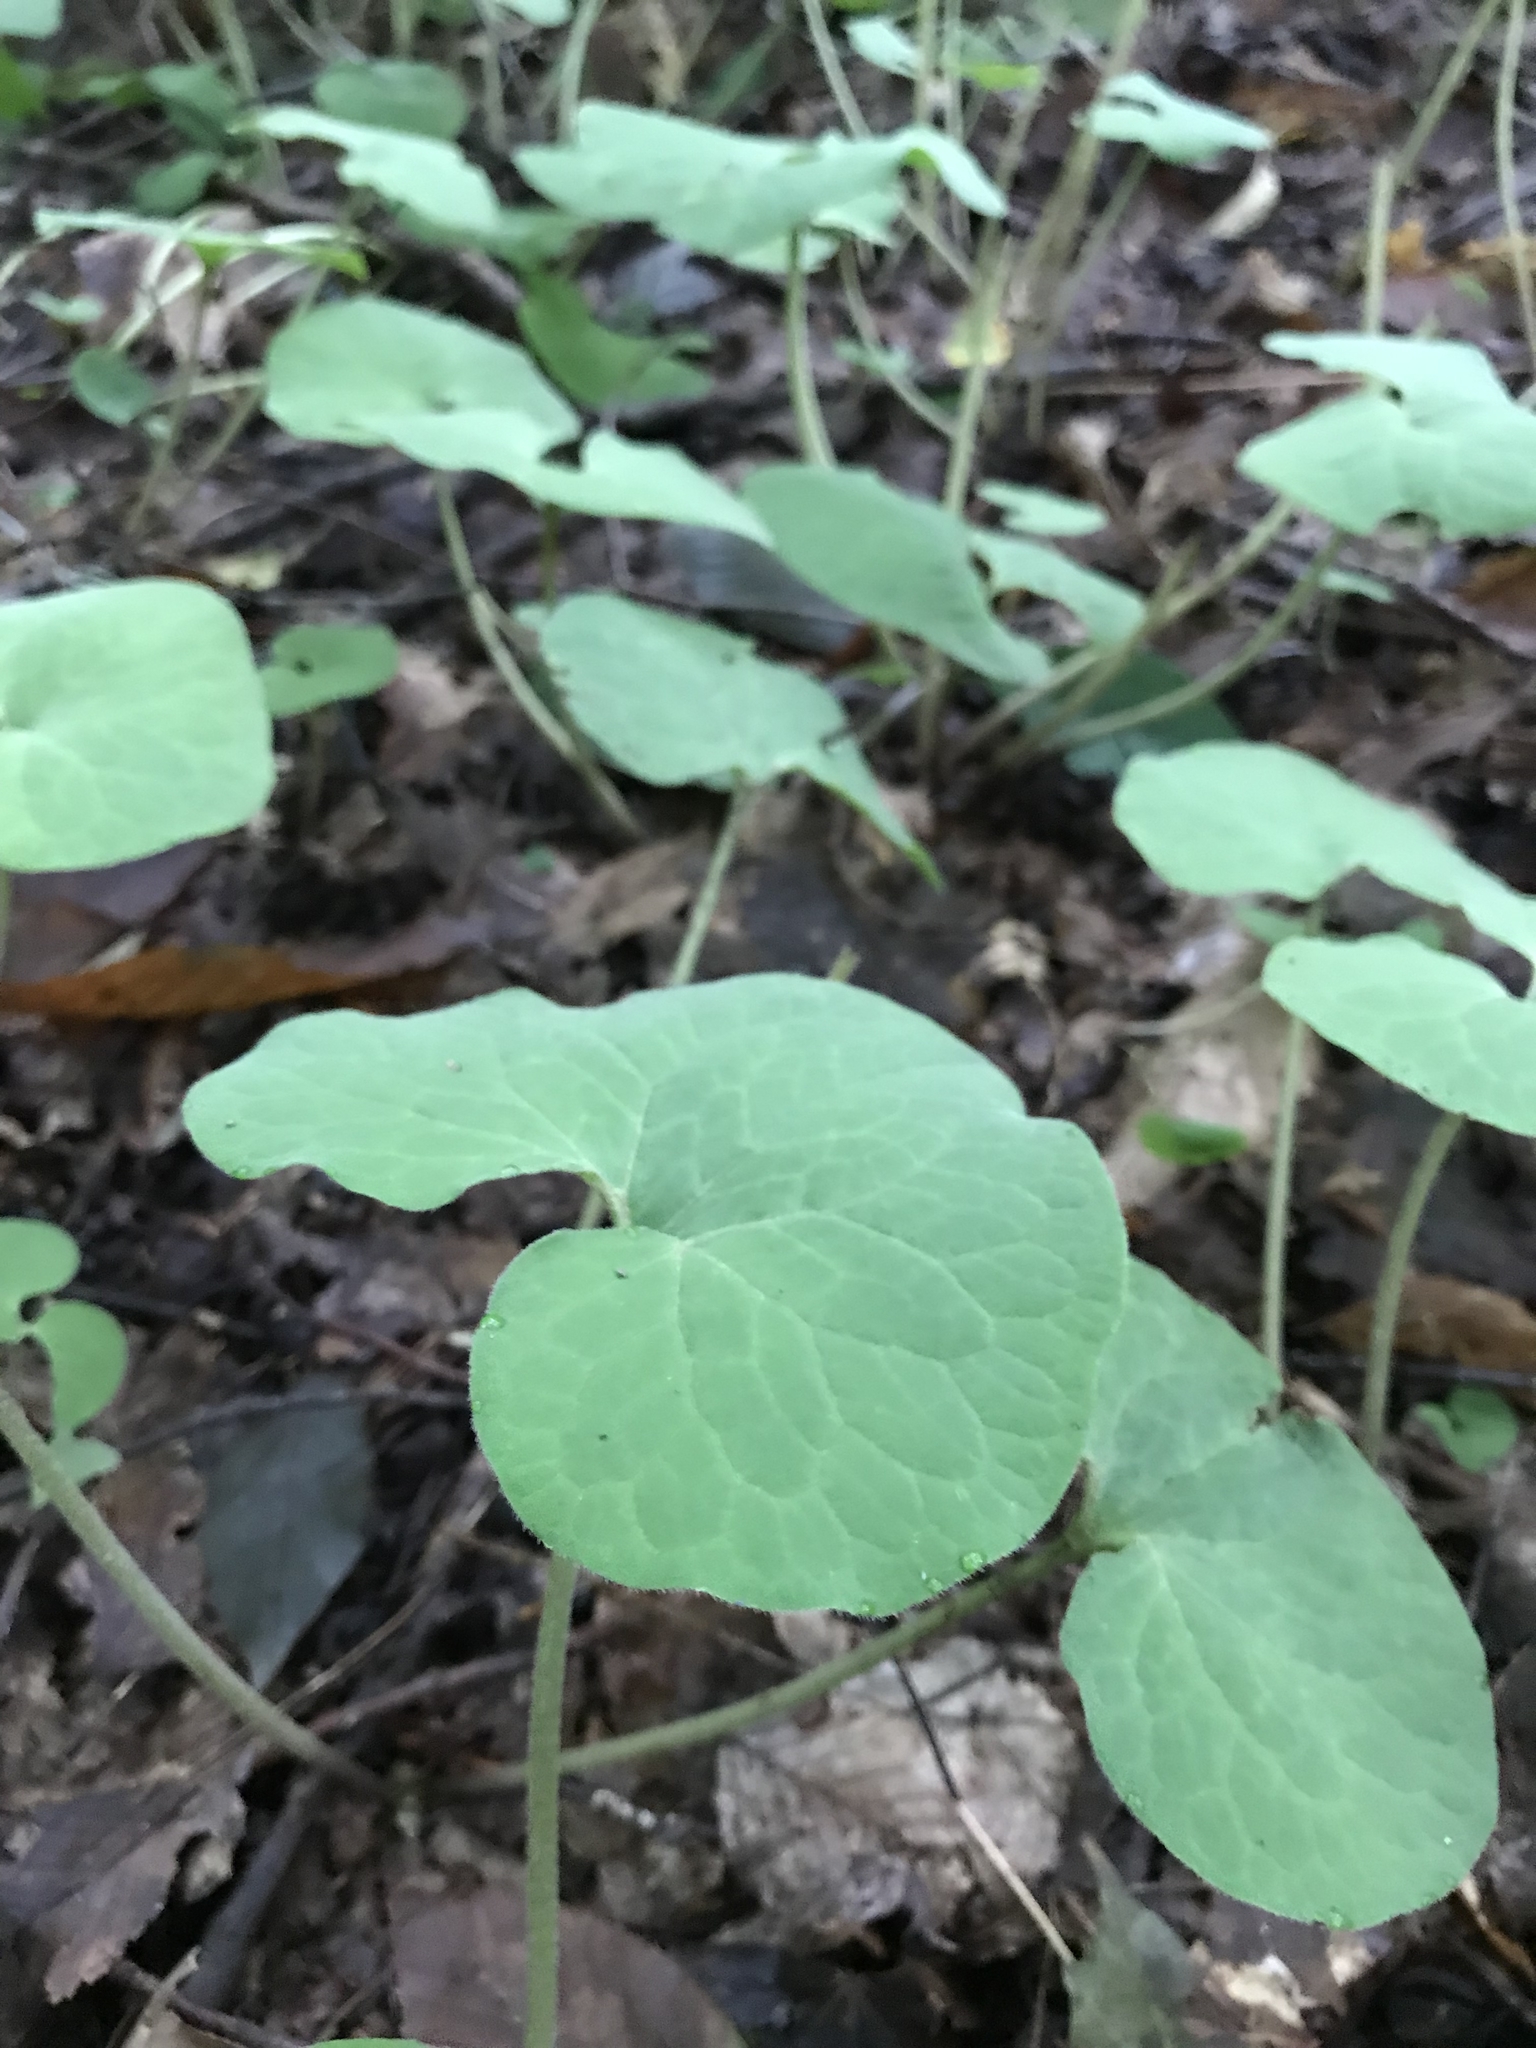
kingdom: Plantae
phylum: Tracheophyta
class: Magnoliopsida
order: Piperales
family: Aristolochiaceae
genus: Asarum
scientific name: Asarum canadense
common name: Wild ginger
